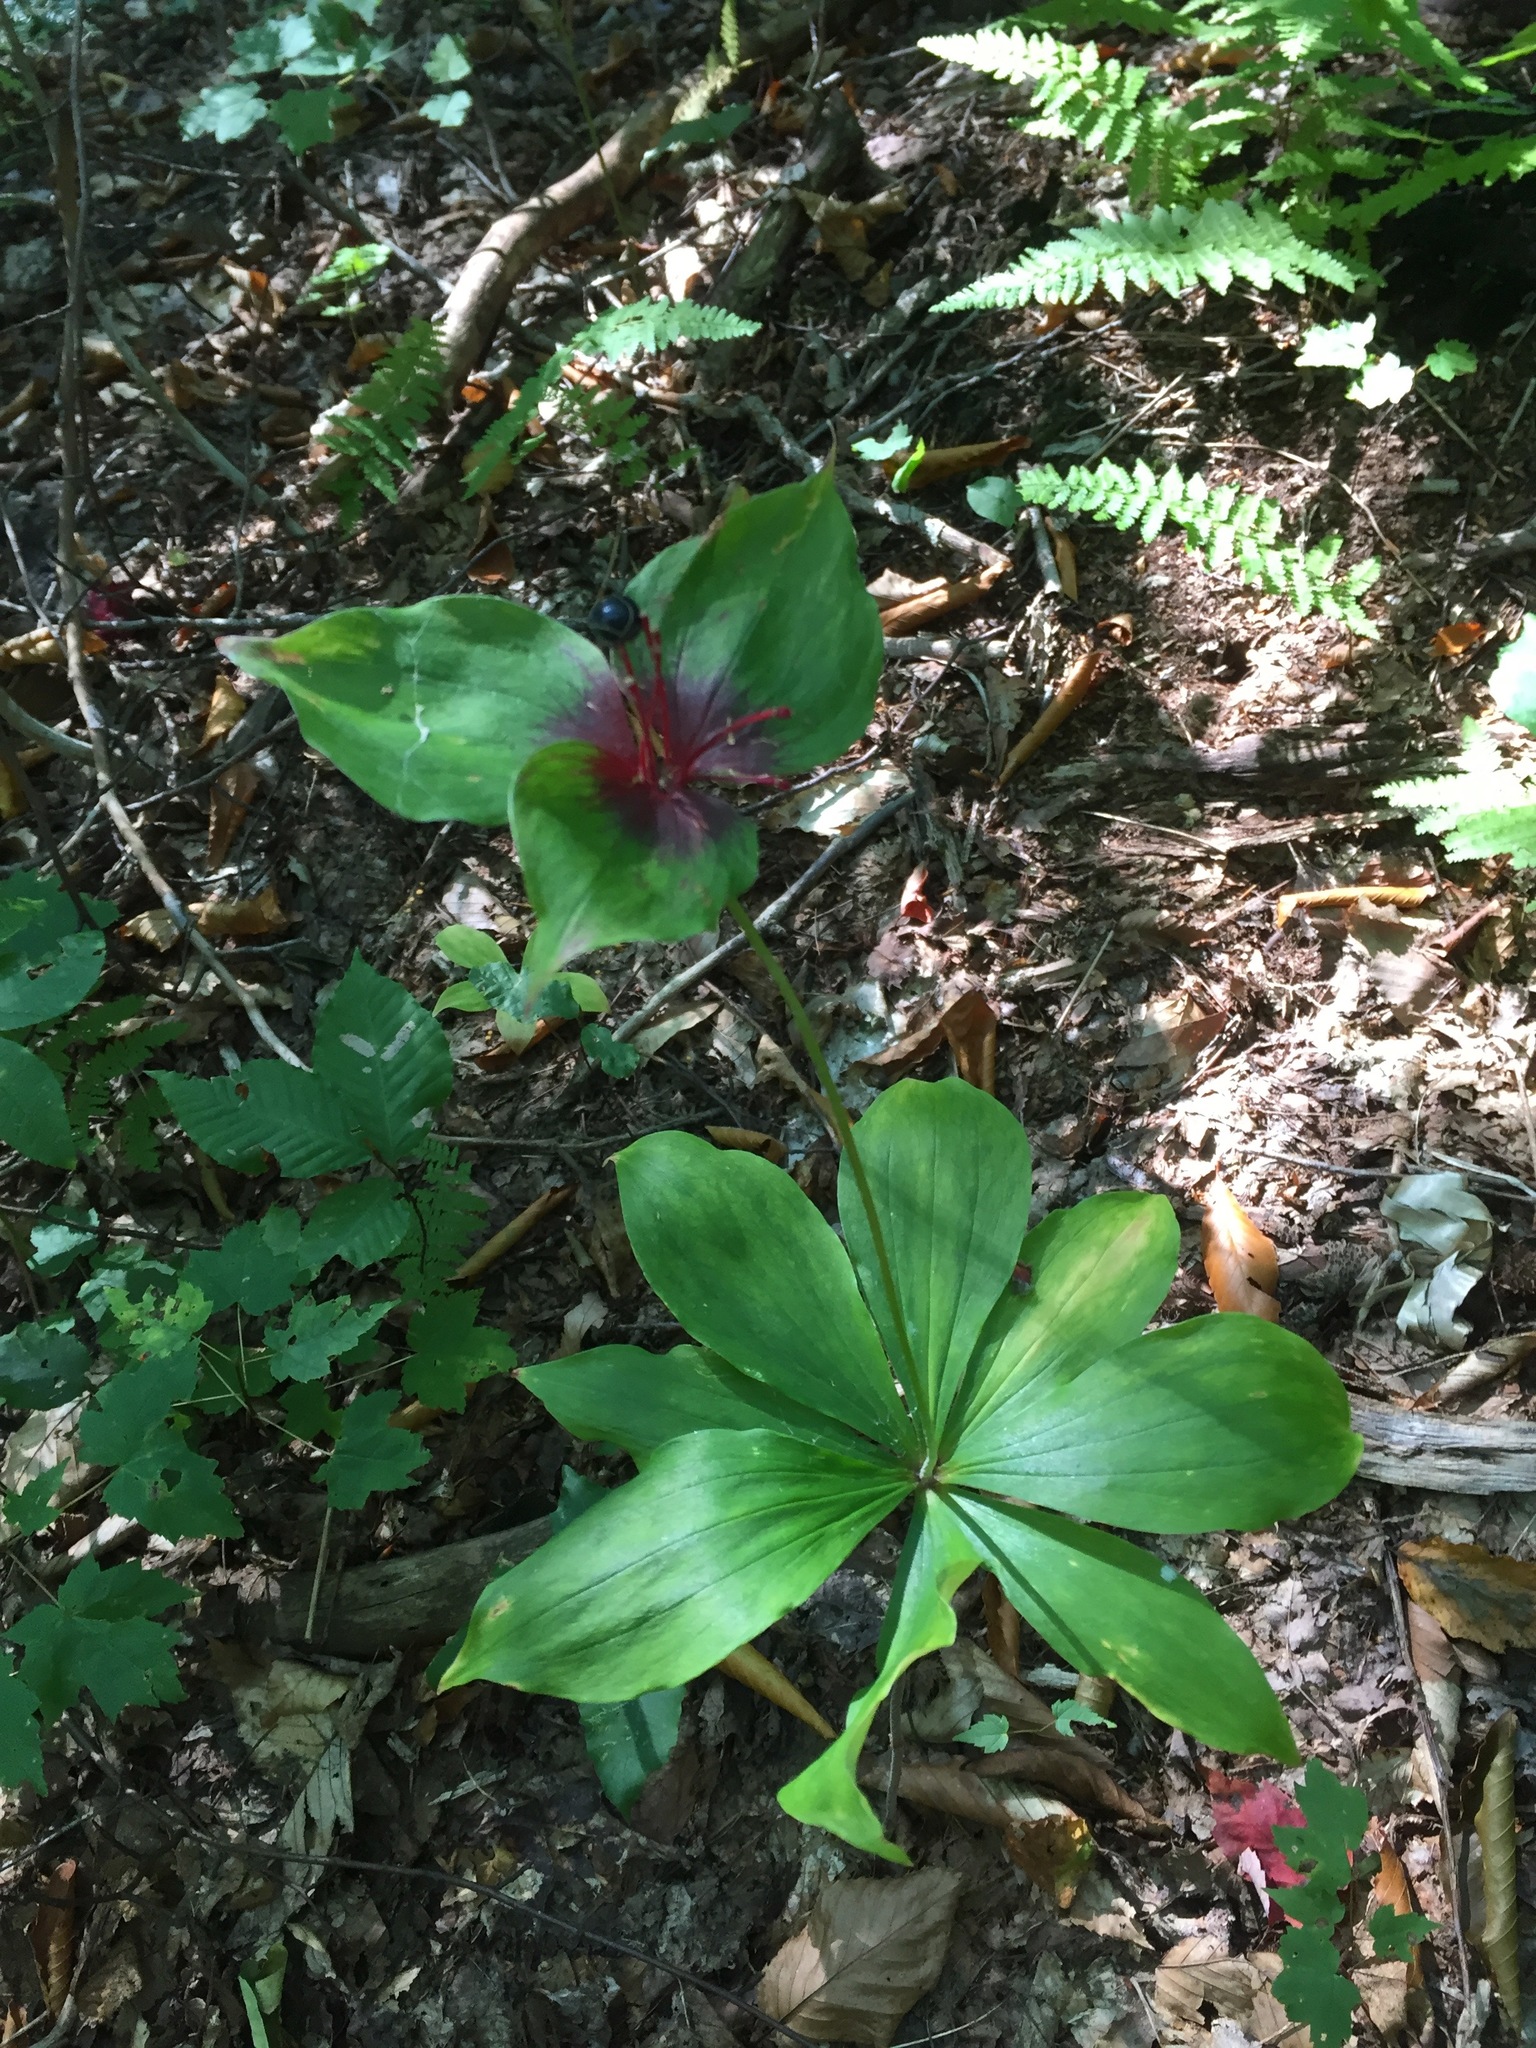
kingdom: Plantae
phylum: Tracheophyta
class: Liliopsida
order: Liliales
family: Liliaceae
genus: Medeola
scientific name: Medeola virginiana
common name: Indian cucumber-root
